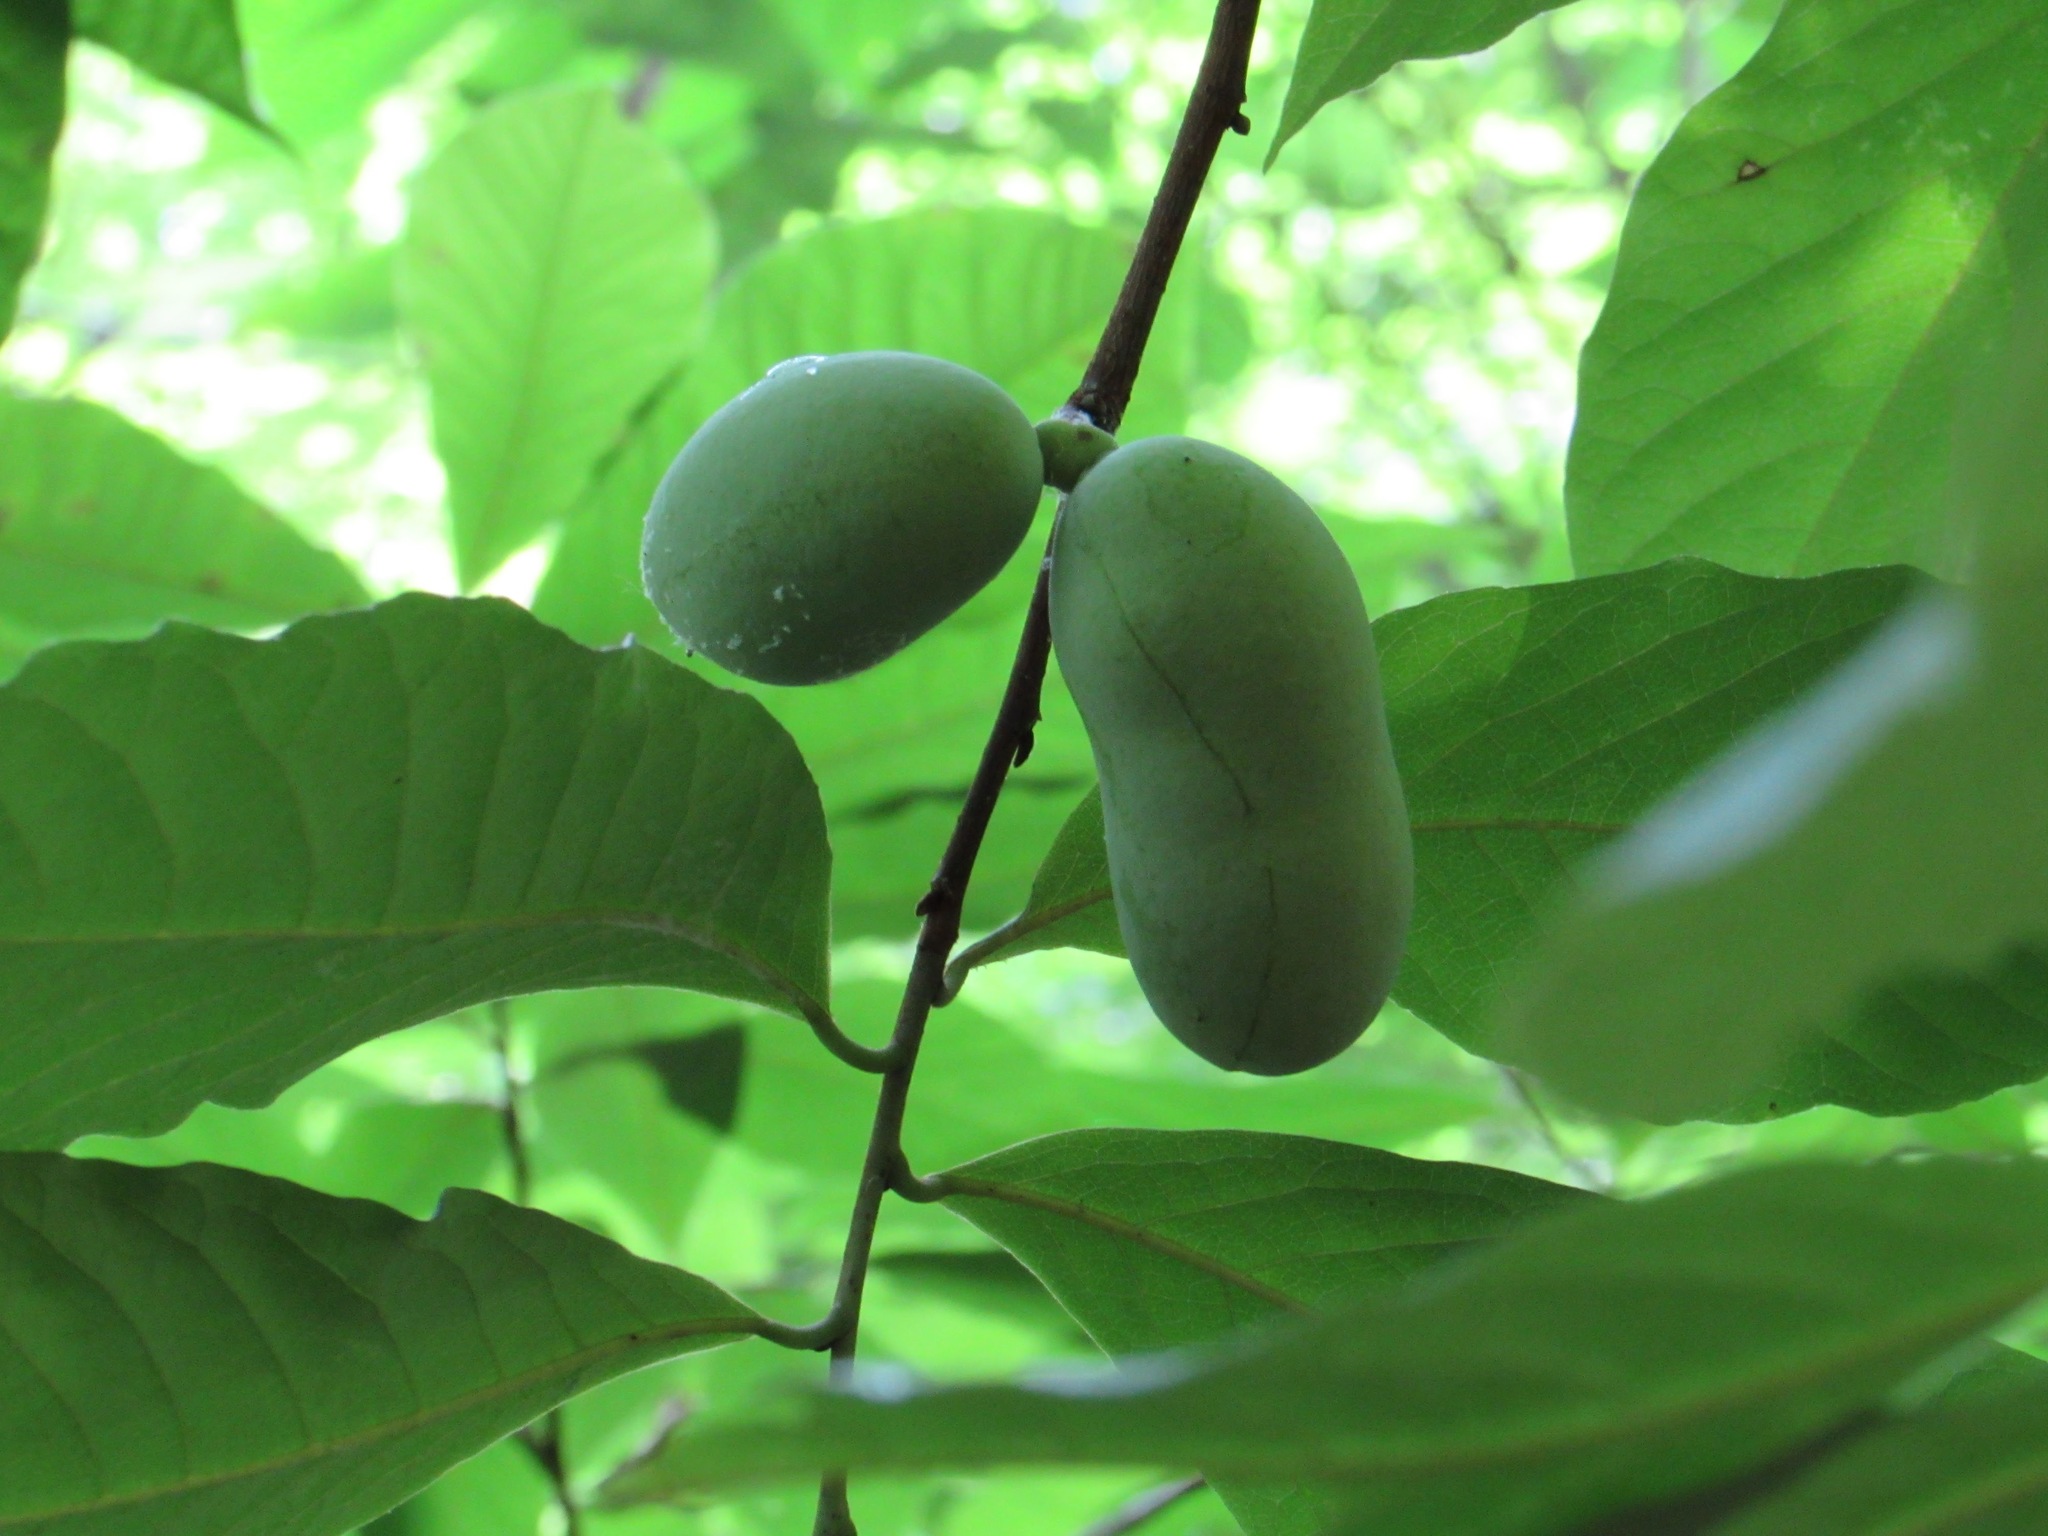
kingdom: Plantae
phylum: Tracheophyta
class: Magnoliopsida
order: Magnoliales
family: Annonaceae
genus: Asimina
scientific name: Asimina triloba
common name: Dog-banana
